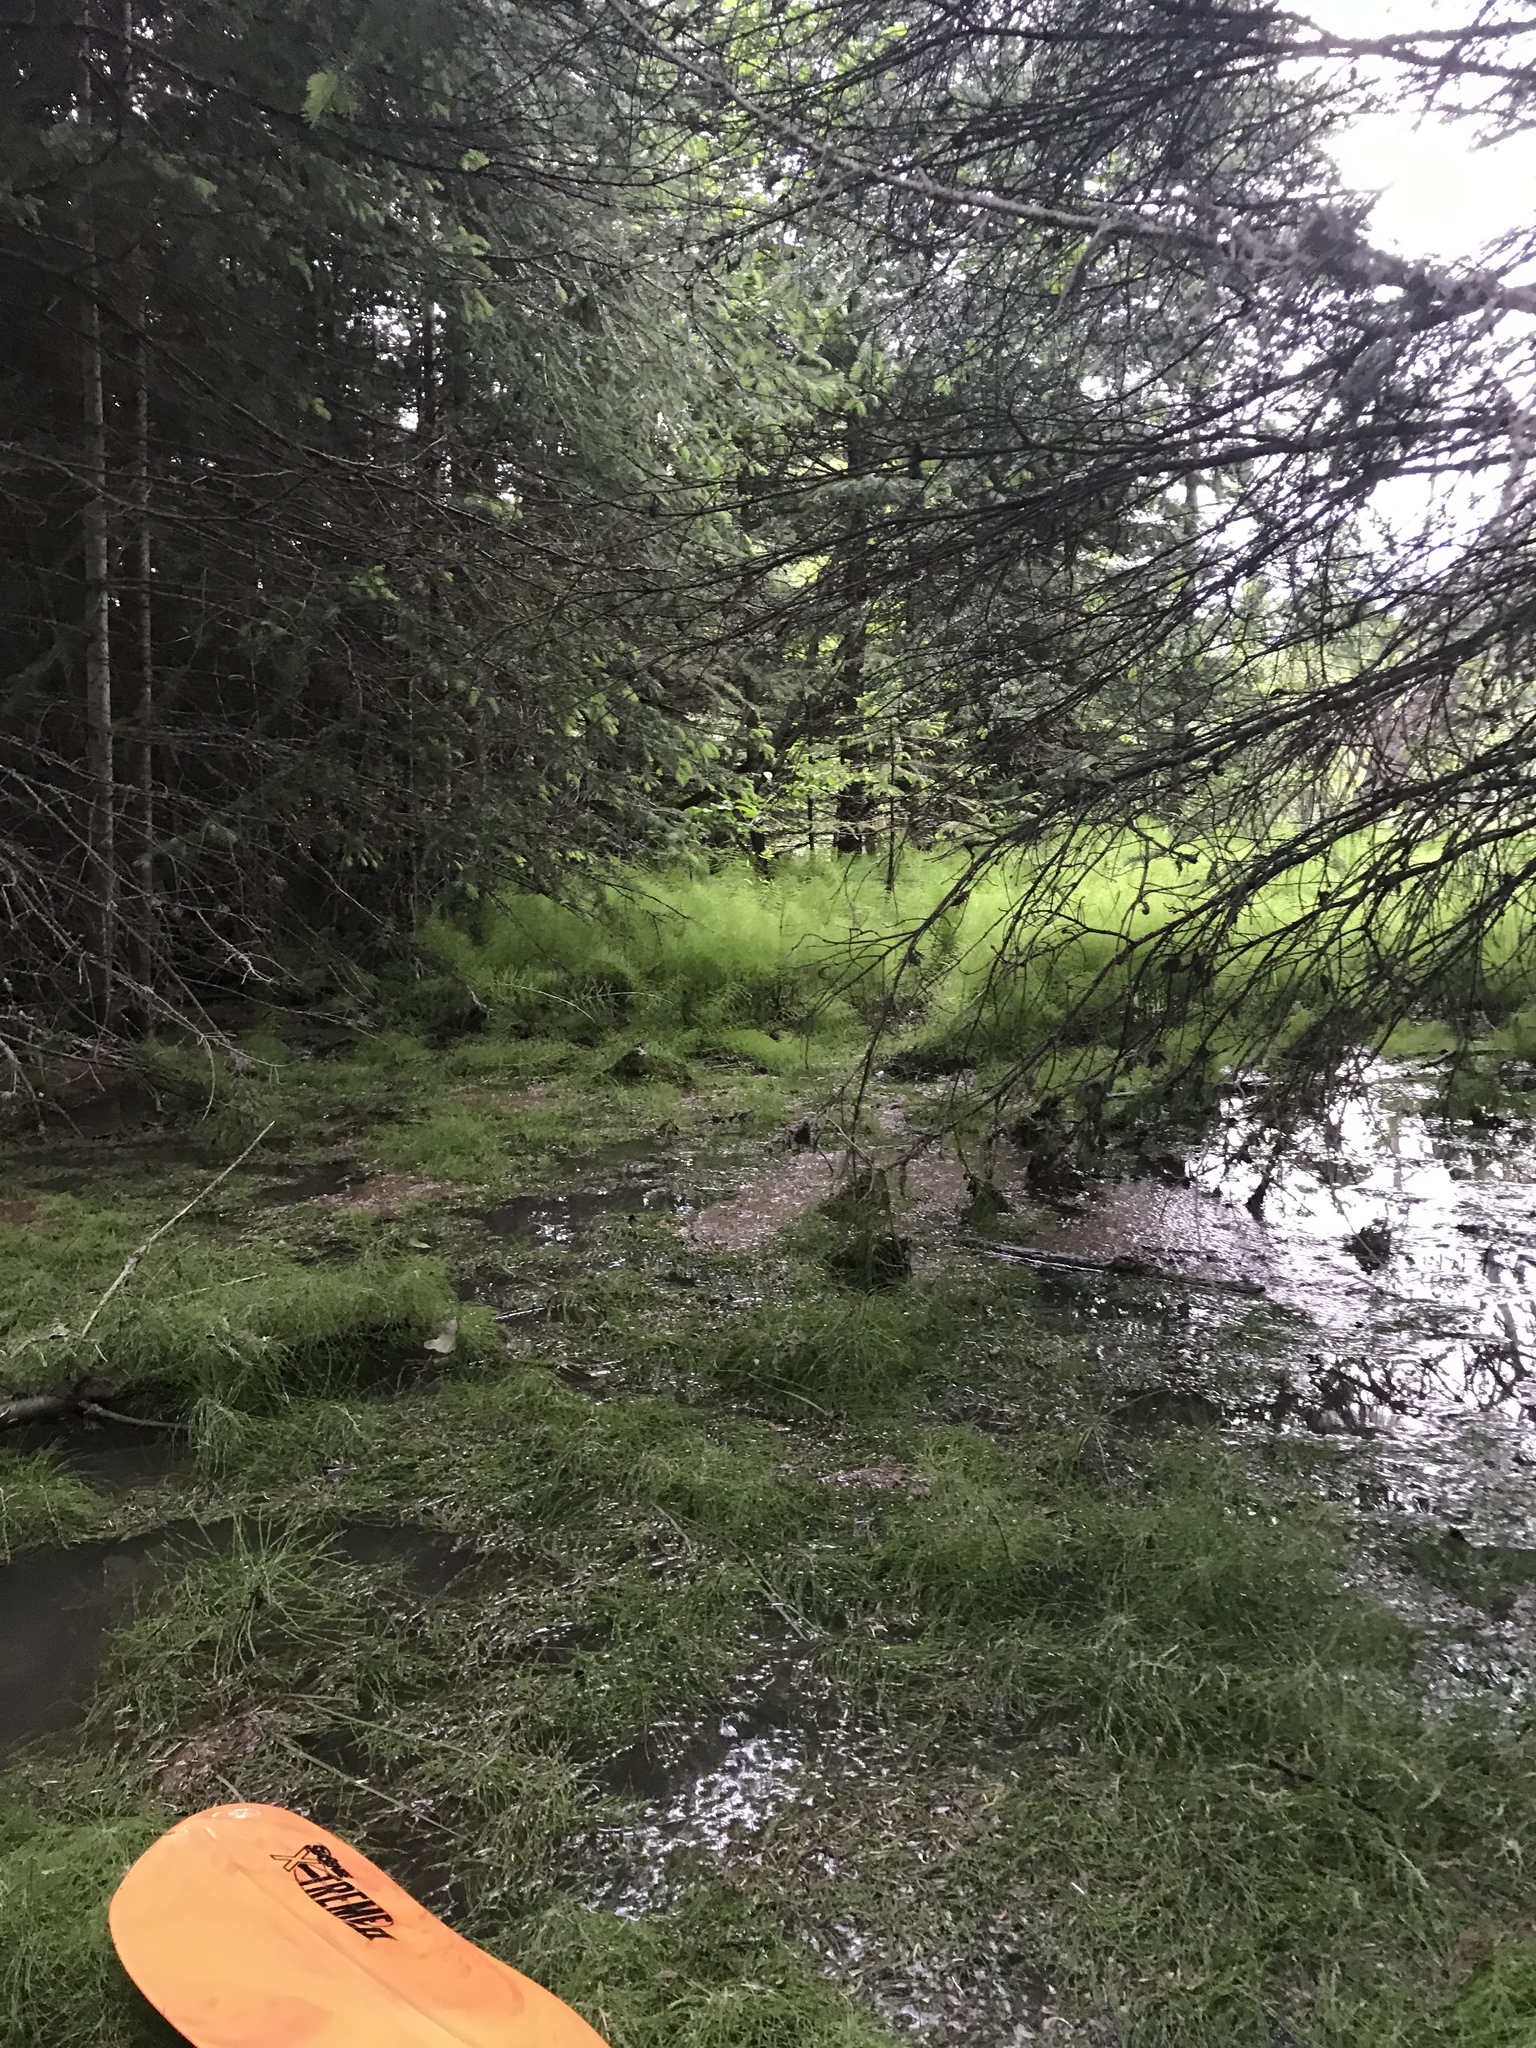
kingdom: Plantae
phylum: Tracheophyta
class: Polypodiopsida
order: Equisetales
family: Equisetaceae
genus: Equisetum
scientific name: Equisetum arvense
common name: Field horsetail
